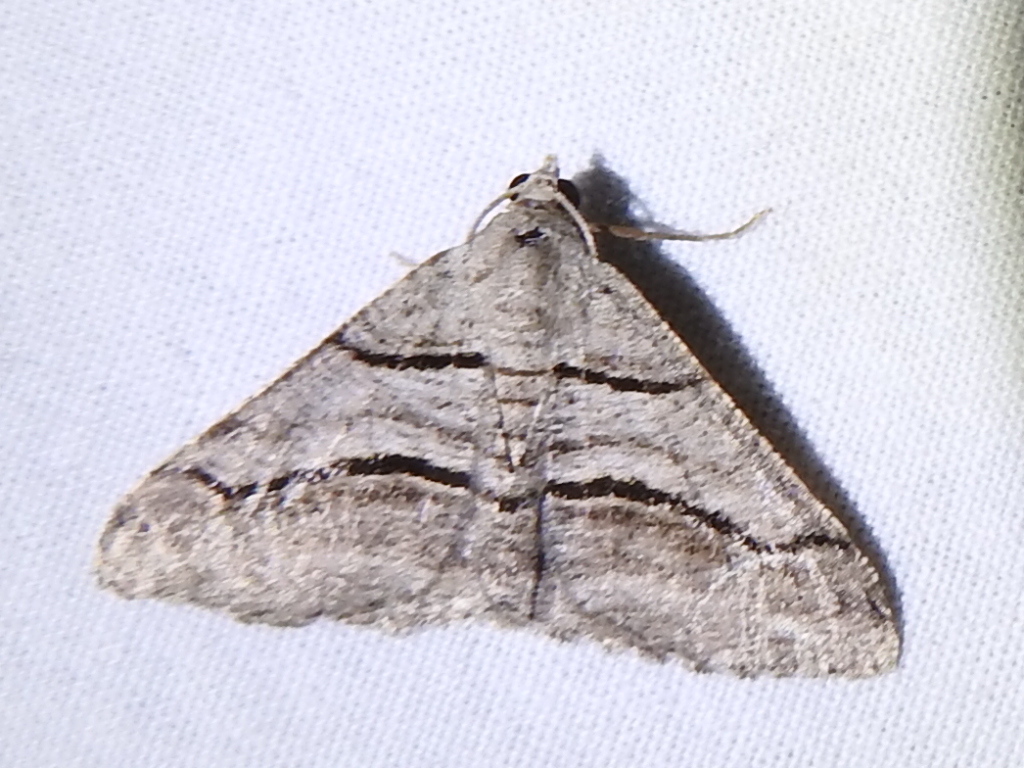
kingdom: Animalia
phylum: Arthropoda
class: Insecta
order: Lepidoptera
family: Geometridae
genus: Digrammia
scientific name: Digrammia continuata
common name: Curve-lined angle
